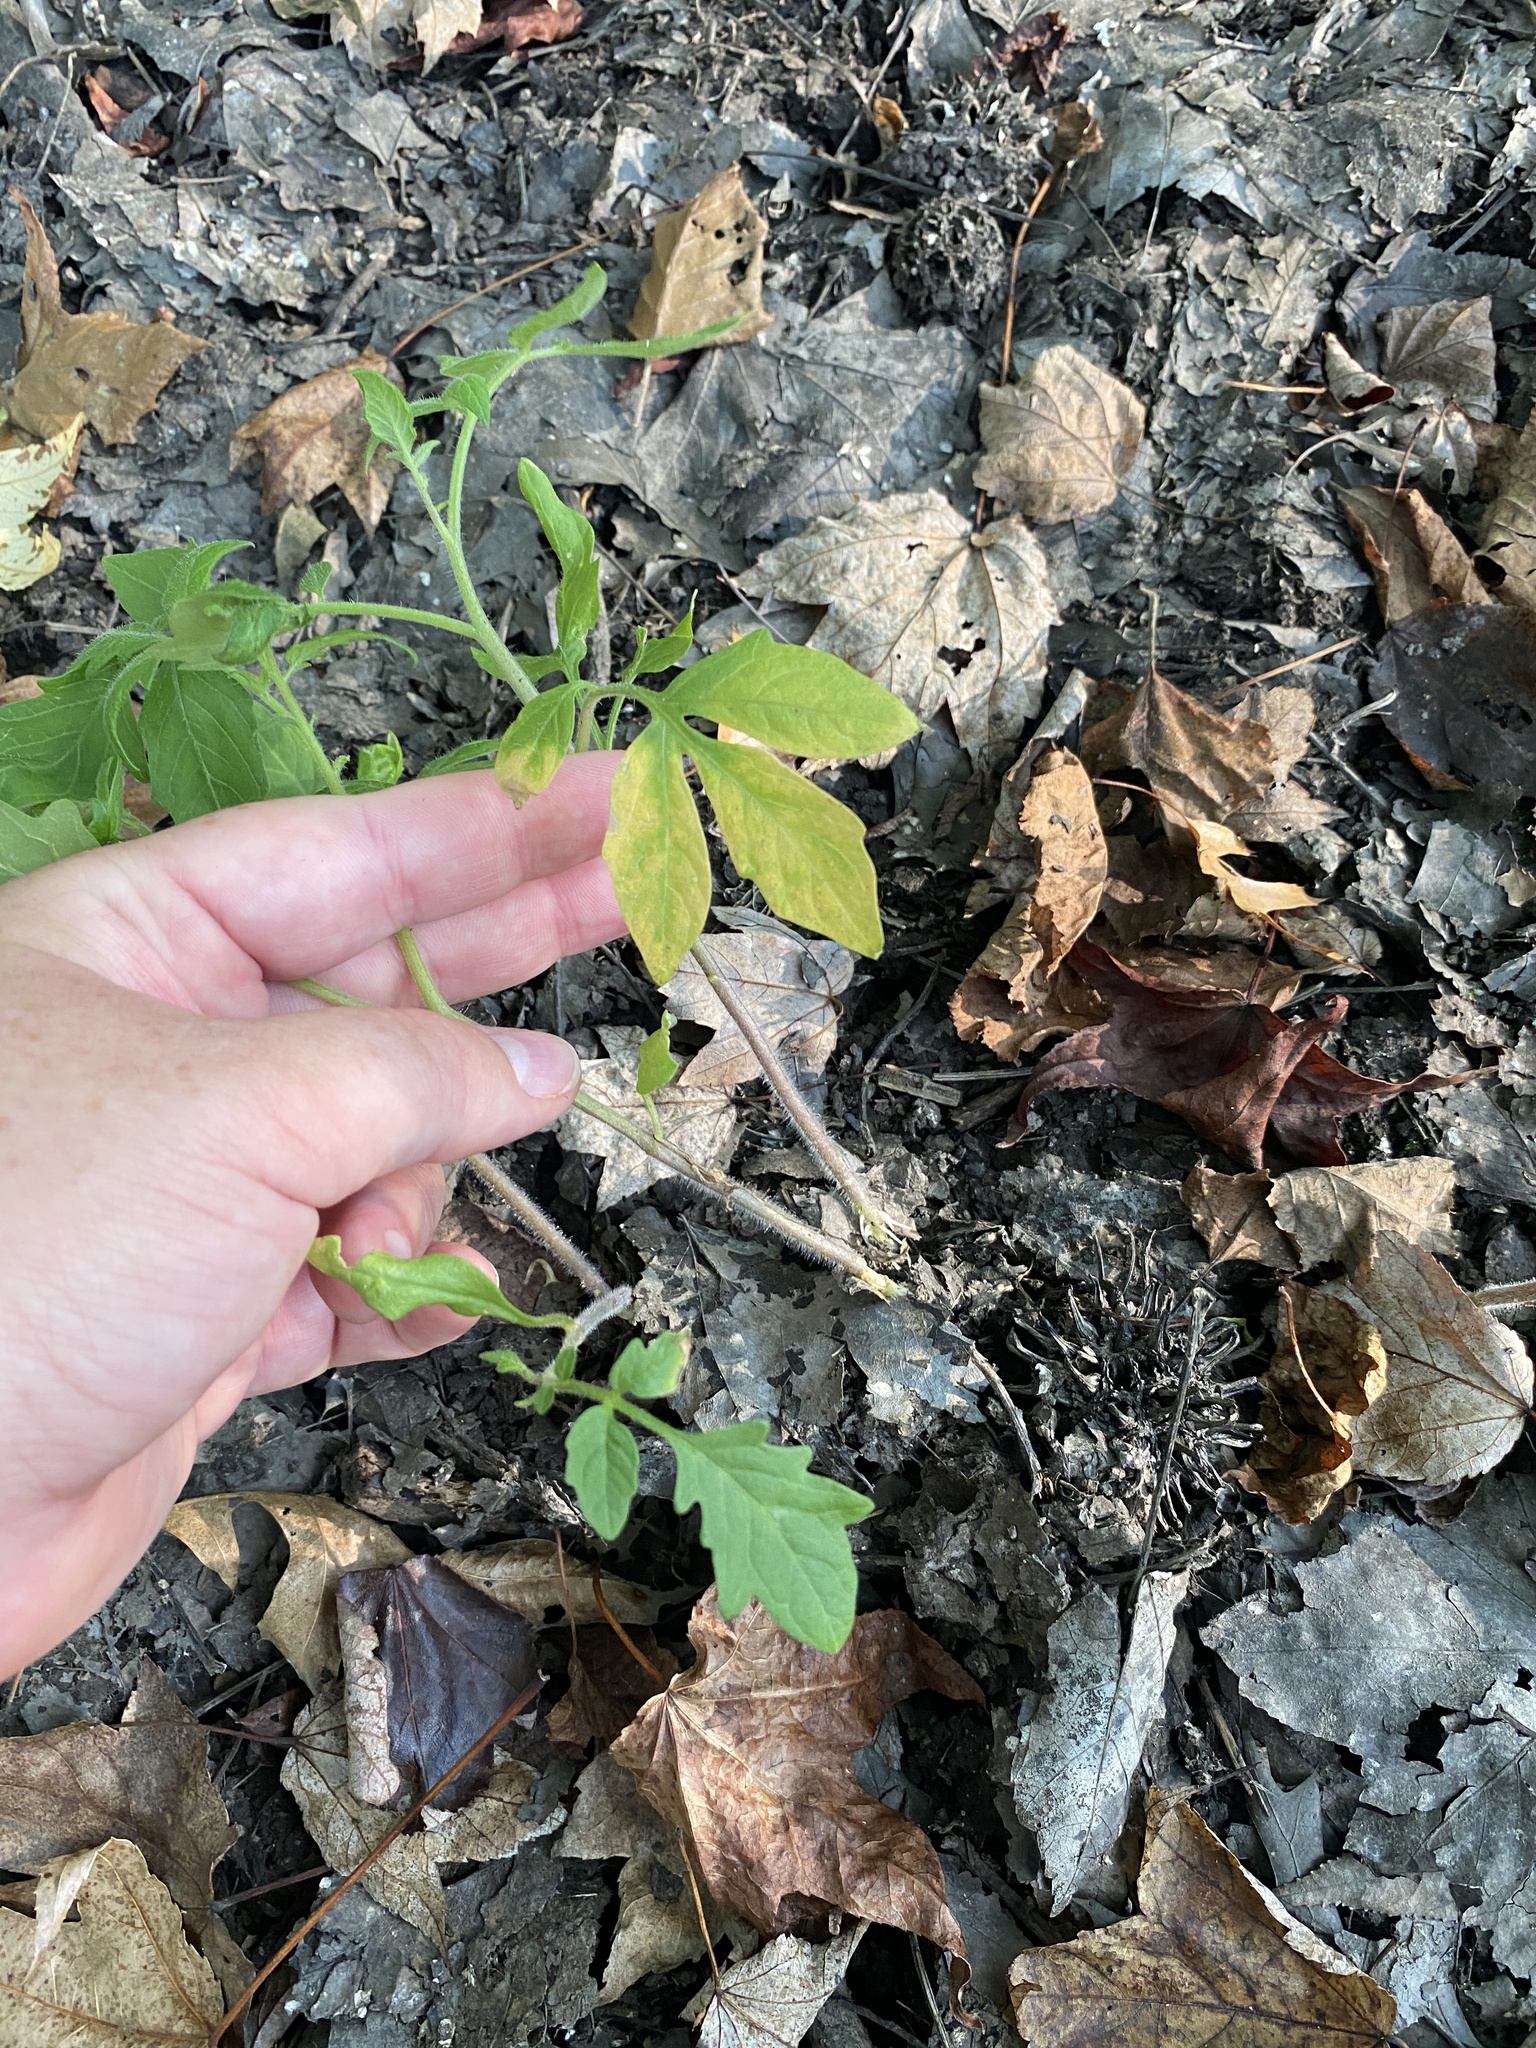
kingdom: Plantae
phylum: Tracheophyta
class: Magnoliopsida
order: Solanales
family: Solanaceae
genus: Solanum
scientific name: Solanum lycopersicum
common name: Garden tomato
